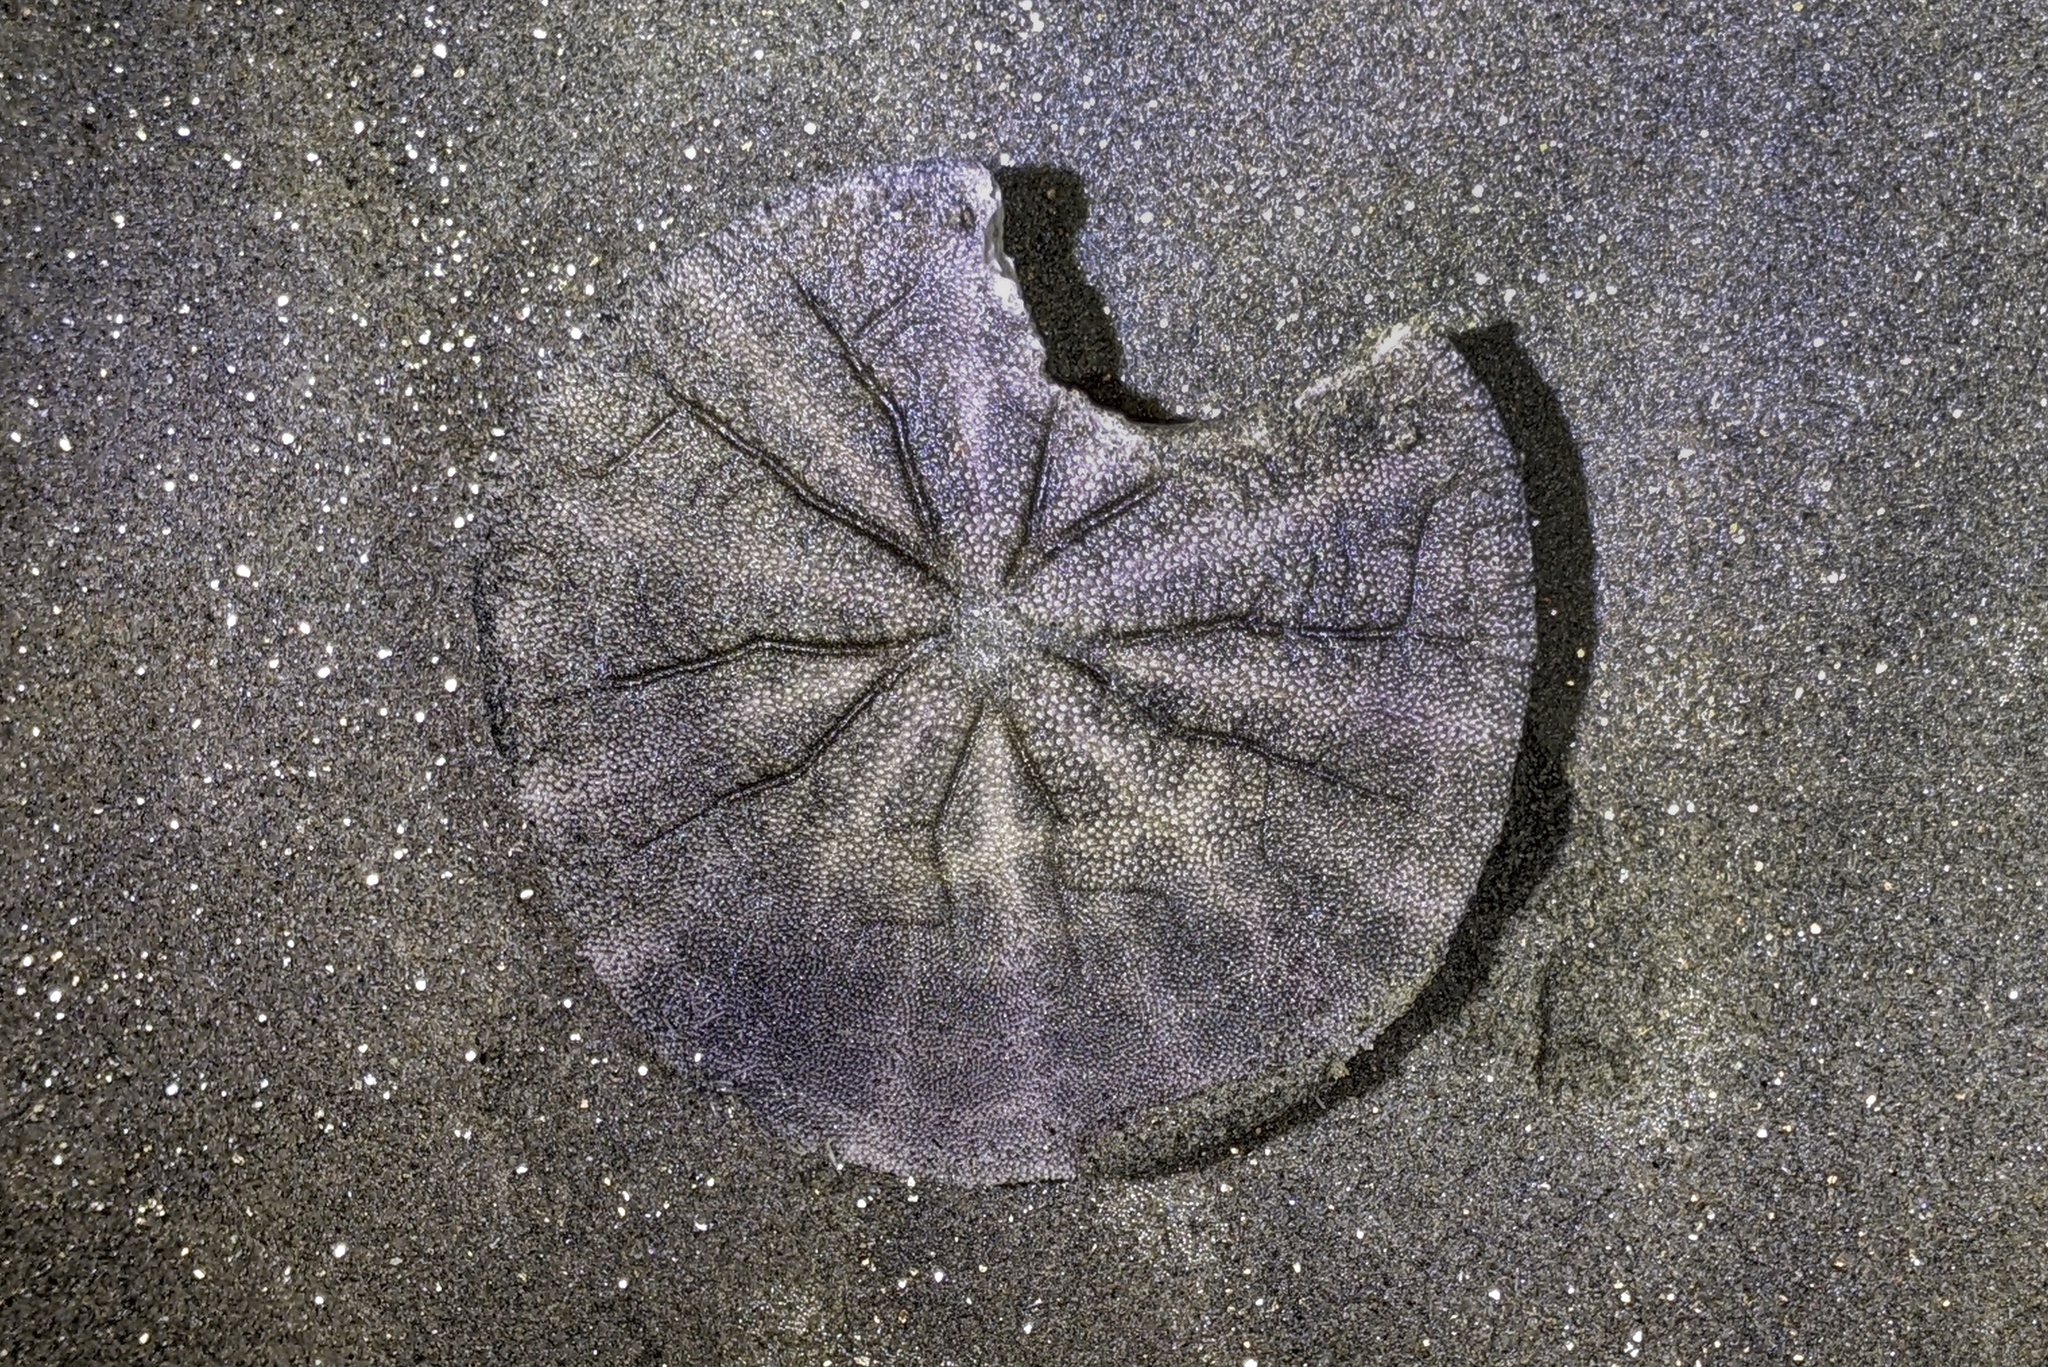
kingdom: Animalia
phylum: Echinodermata
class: Echinoidea
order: Echinolampadacea
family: Dendrasteridae
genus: Dendraster
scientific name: Dendraster excentricus
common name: Eccentric sand dollar sea urchin
